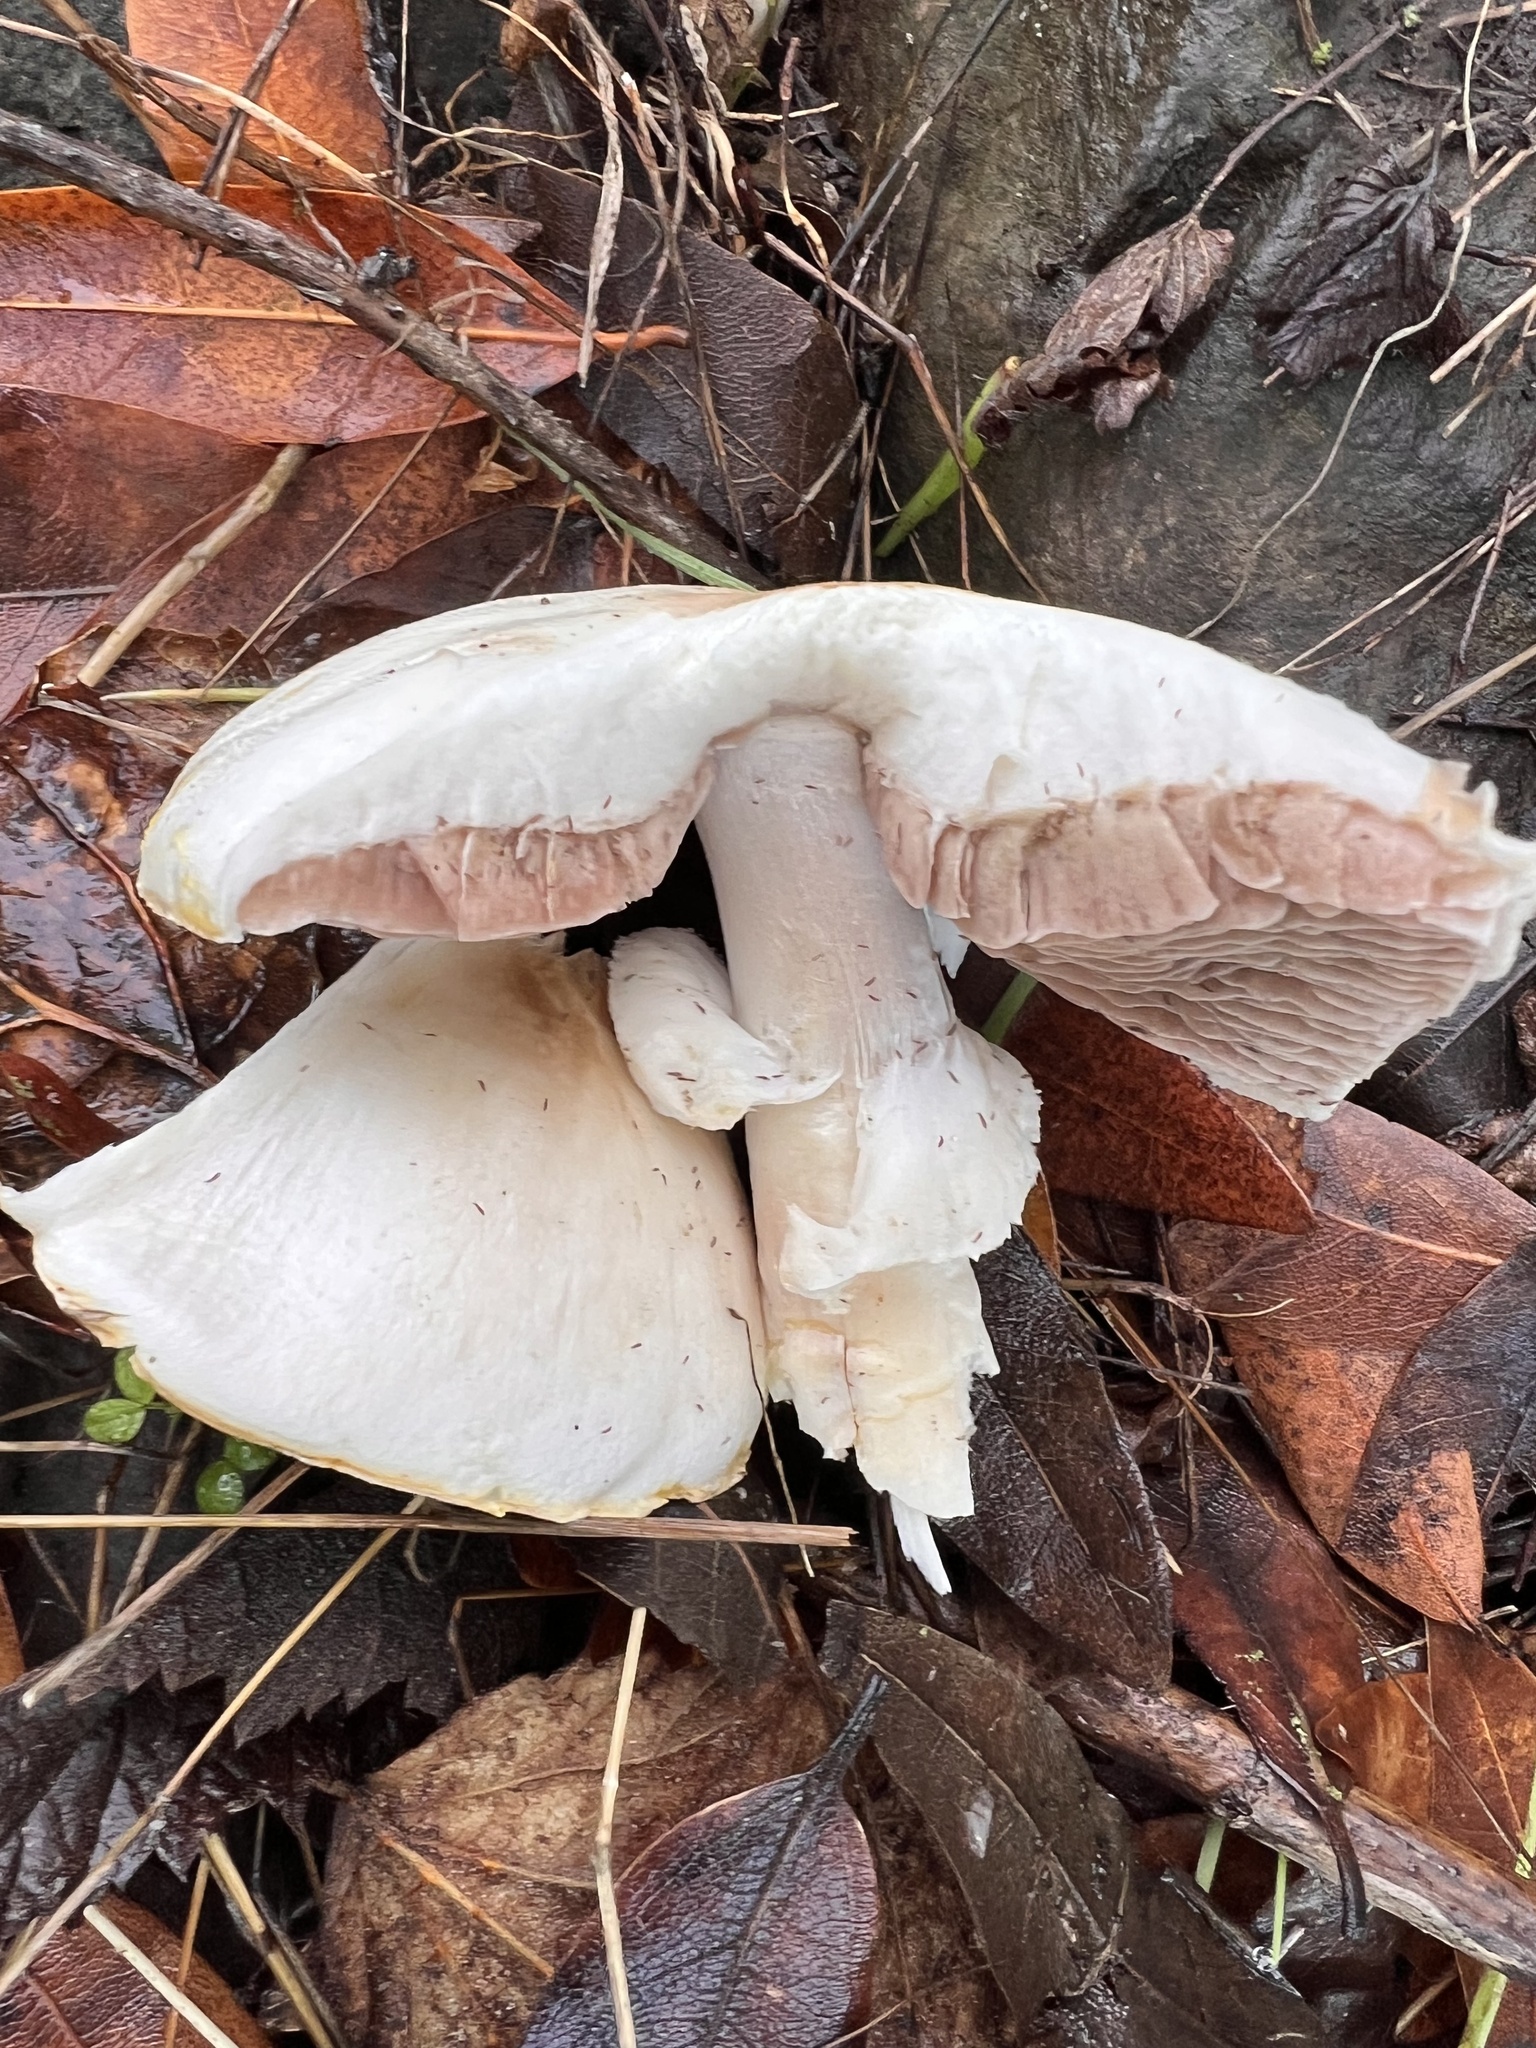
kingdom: Fungi
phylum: Basidiomycota
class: Agaricomycetes
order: Agaricales
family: Agaricaceae
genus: Agaricus
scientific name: Agaricus xanthodermus
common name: Yellow stainer
